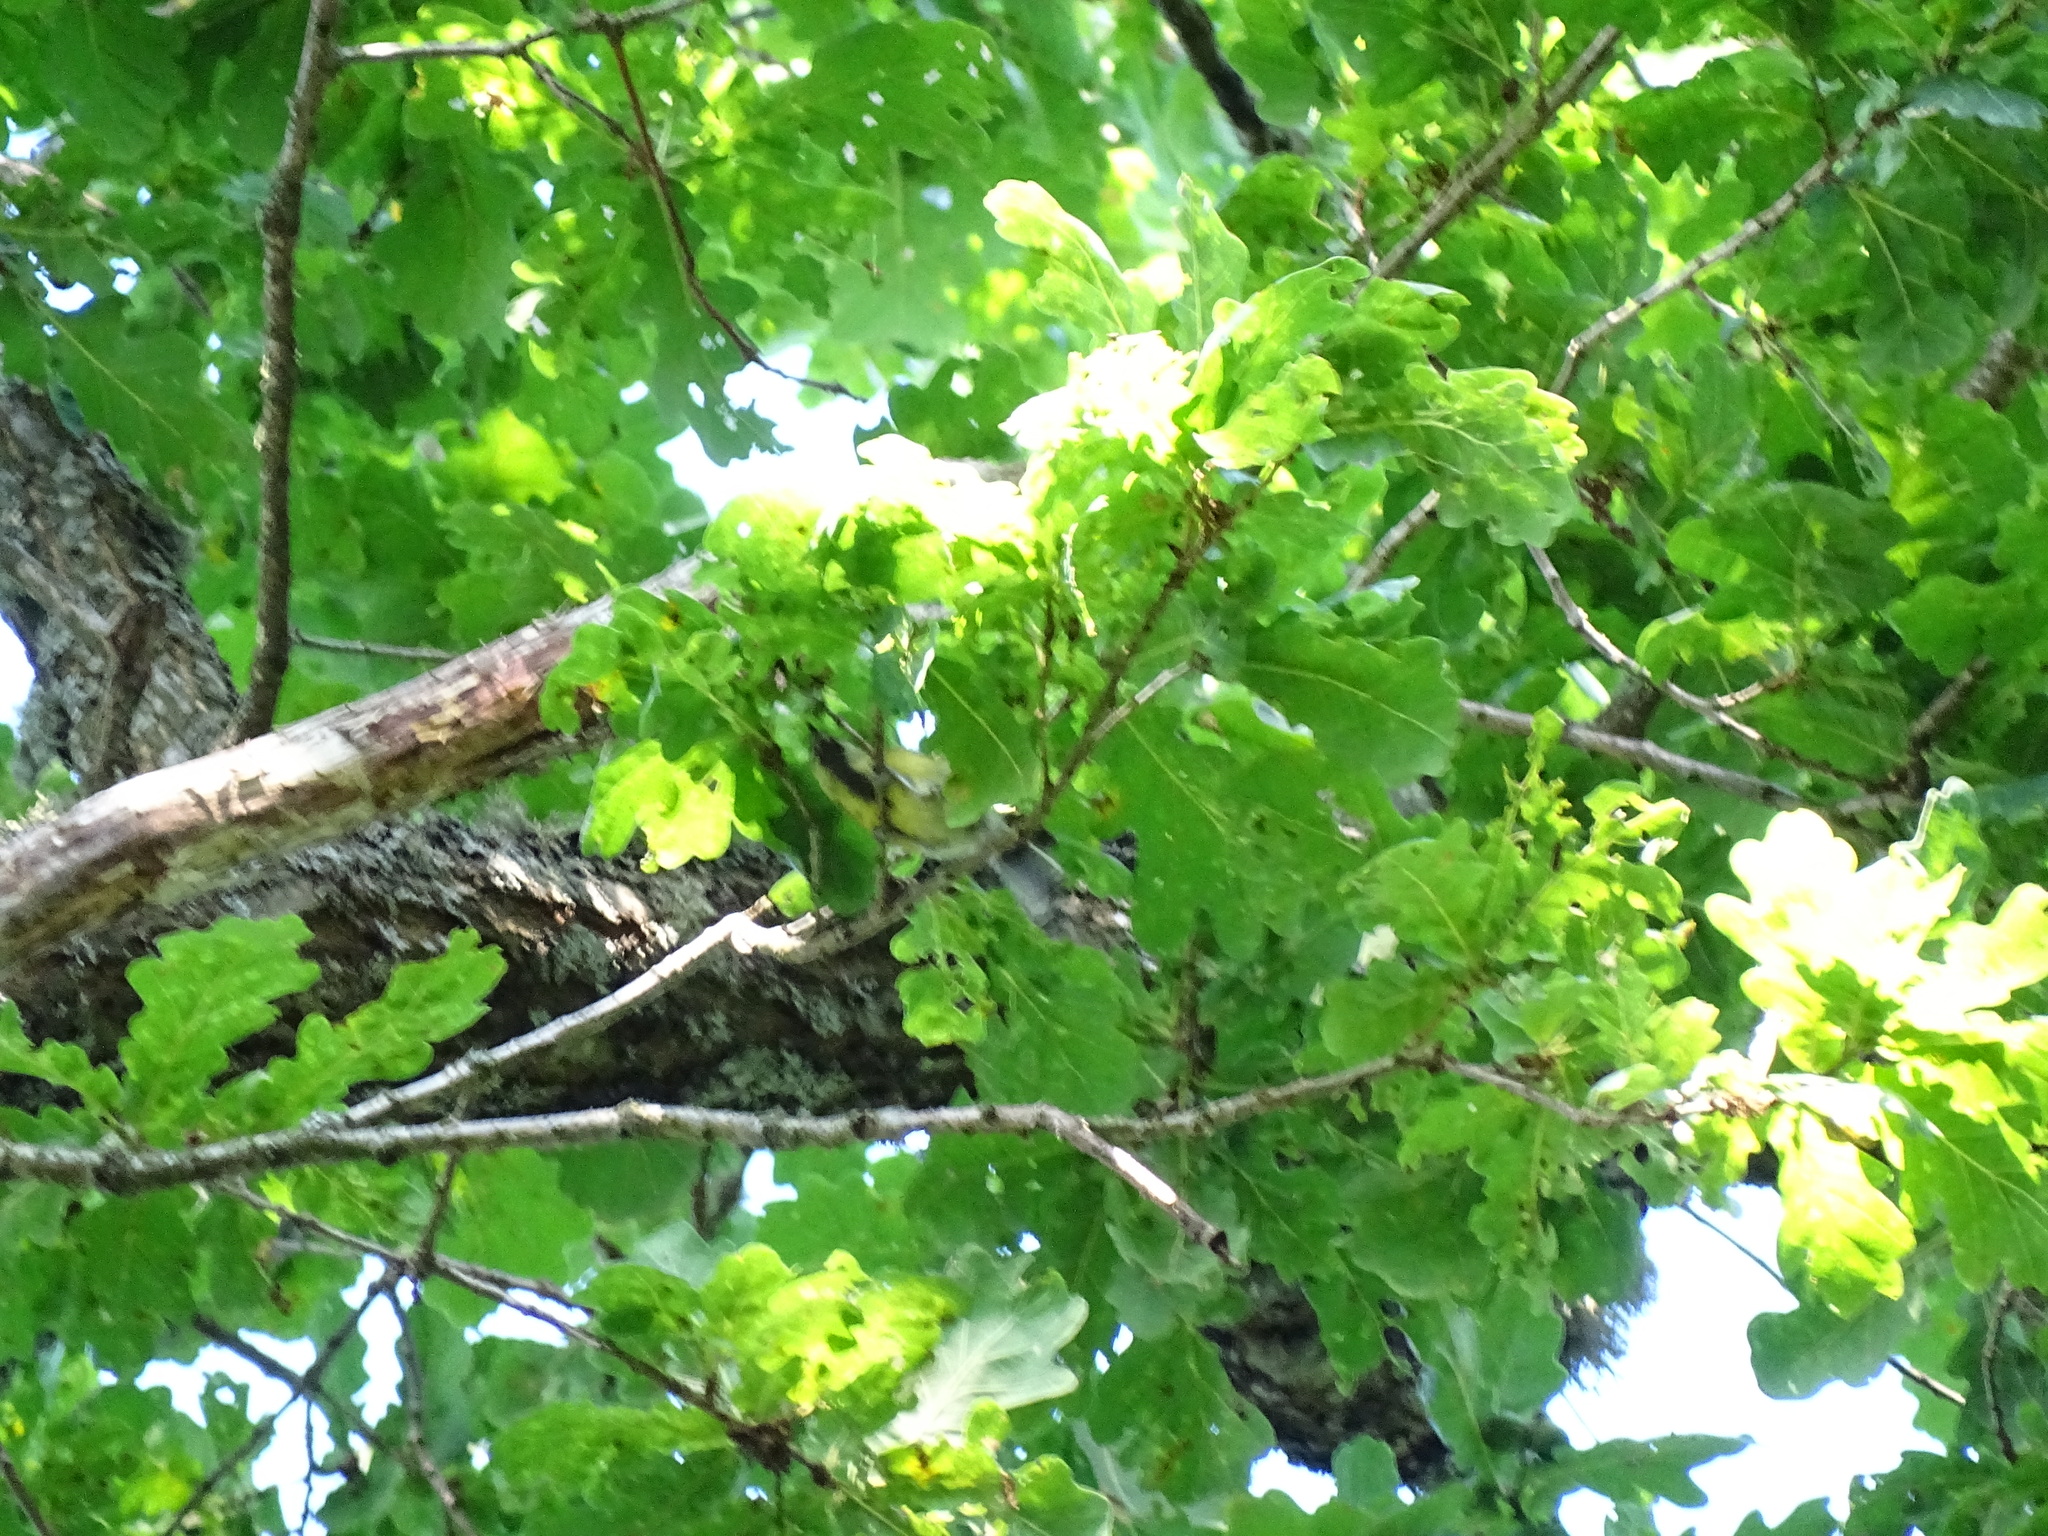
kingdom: Animalia
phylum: Chordata
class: Aves
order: Passeriformes
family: Paridae
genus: Parus
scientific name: Parus major
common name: Great tit
